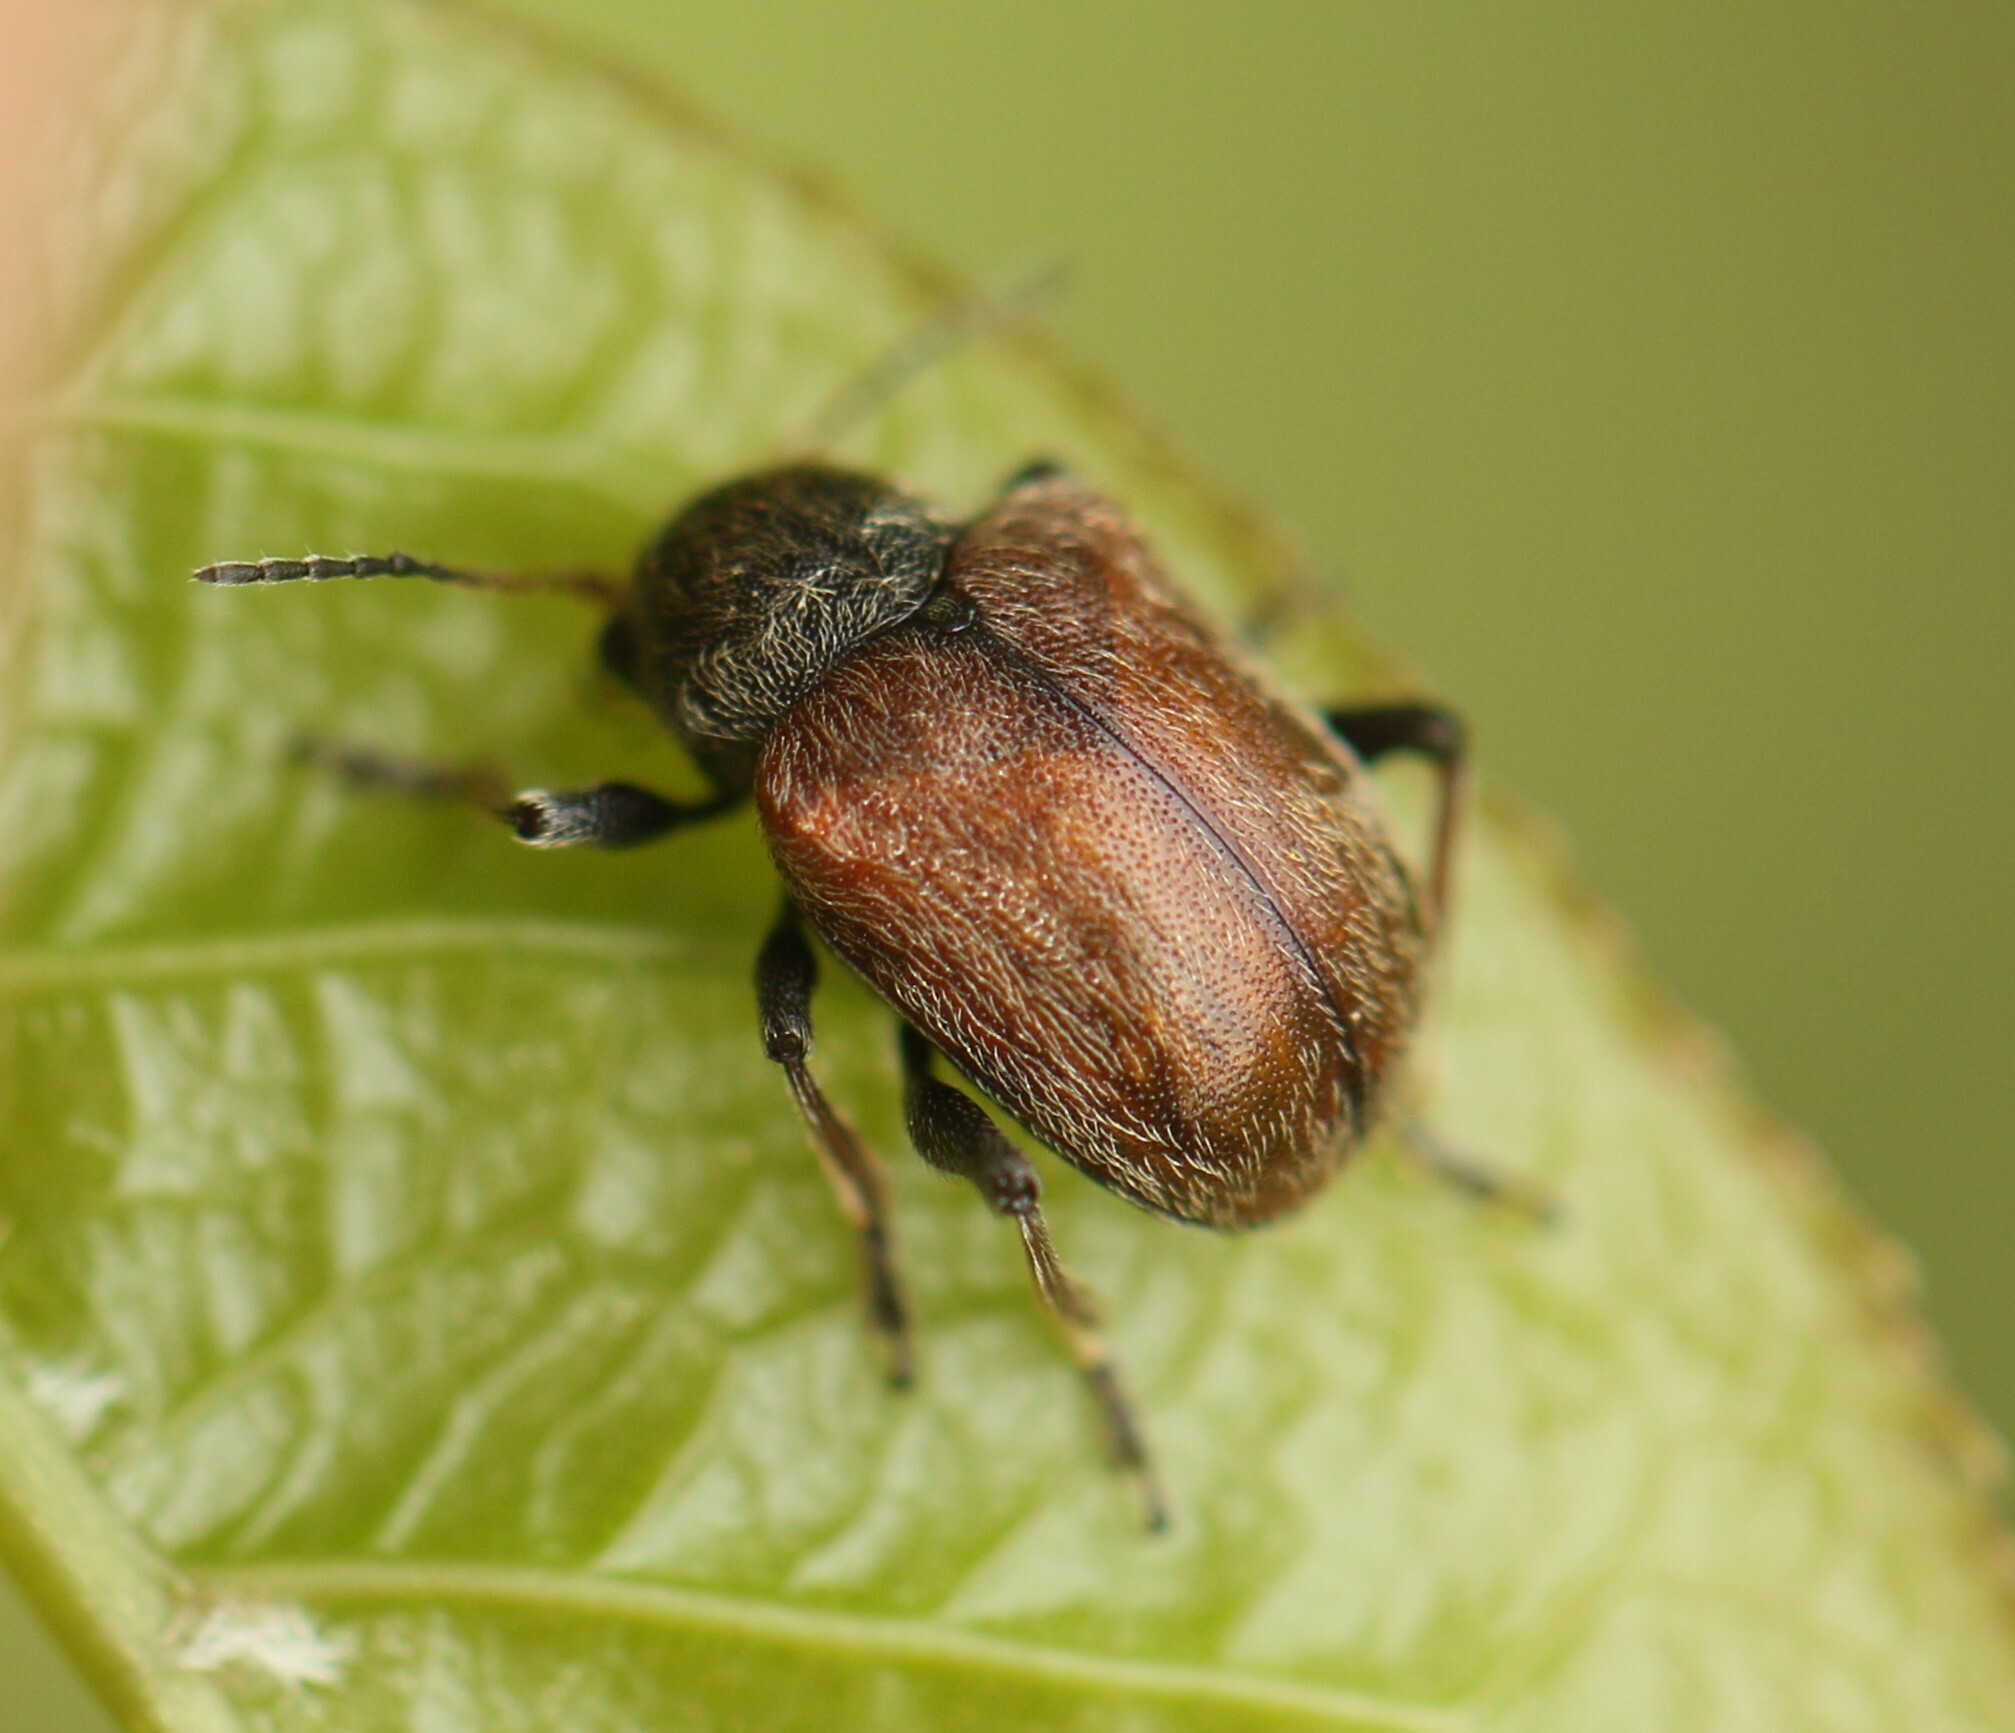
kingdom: Animalia
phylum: Arthropoda
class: Insecta
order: Coleoptera
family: Chrysomelidae
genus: Bromius
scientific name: Bromius obscurus
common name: Western grape rootworm
